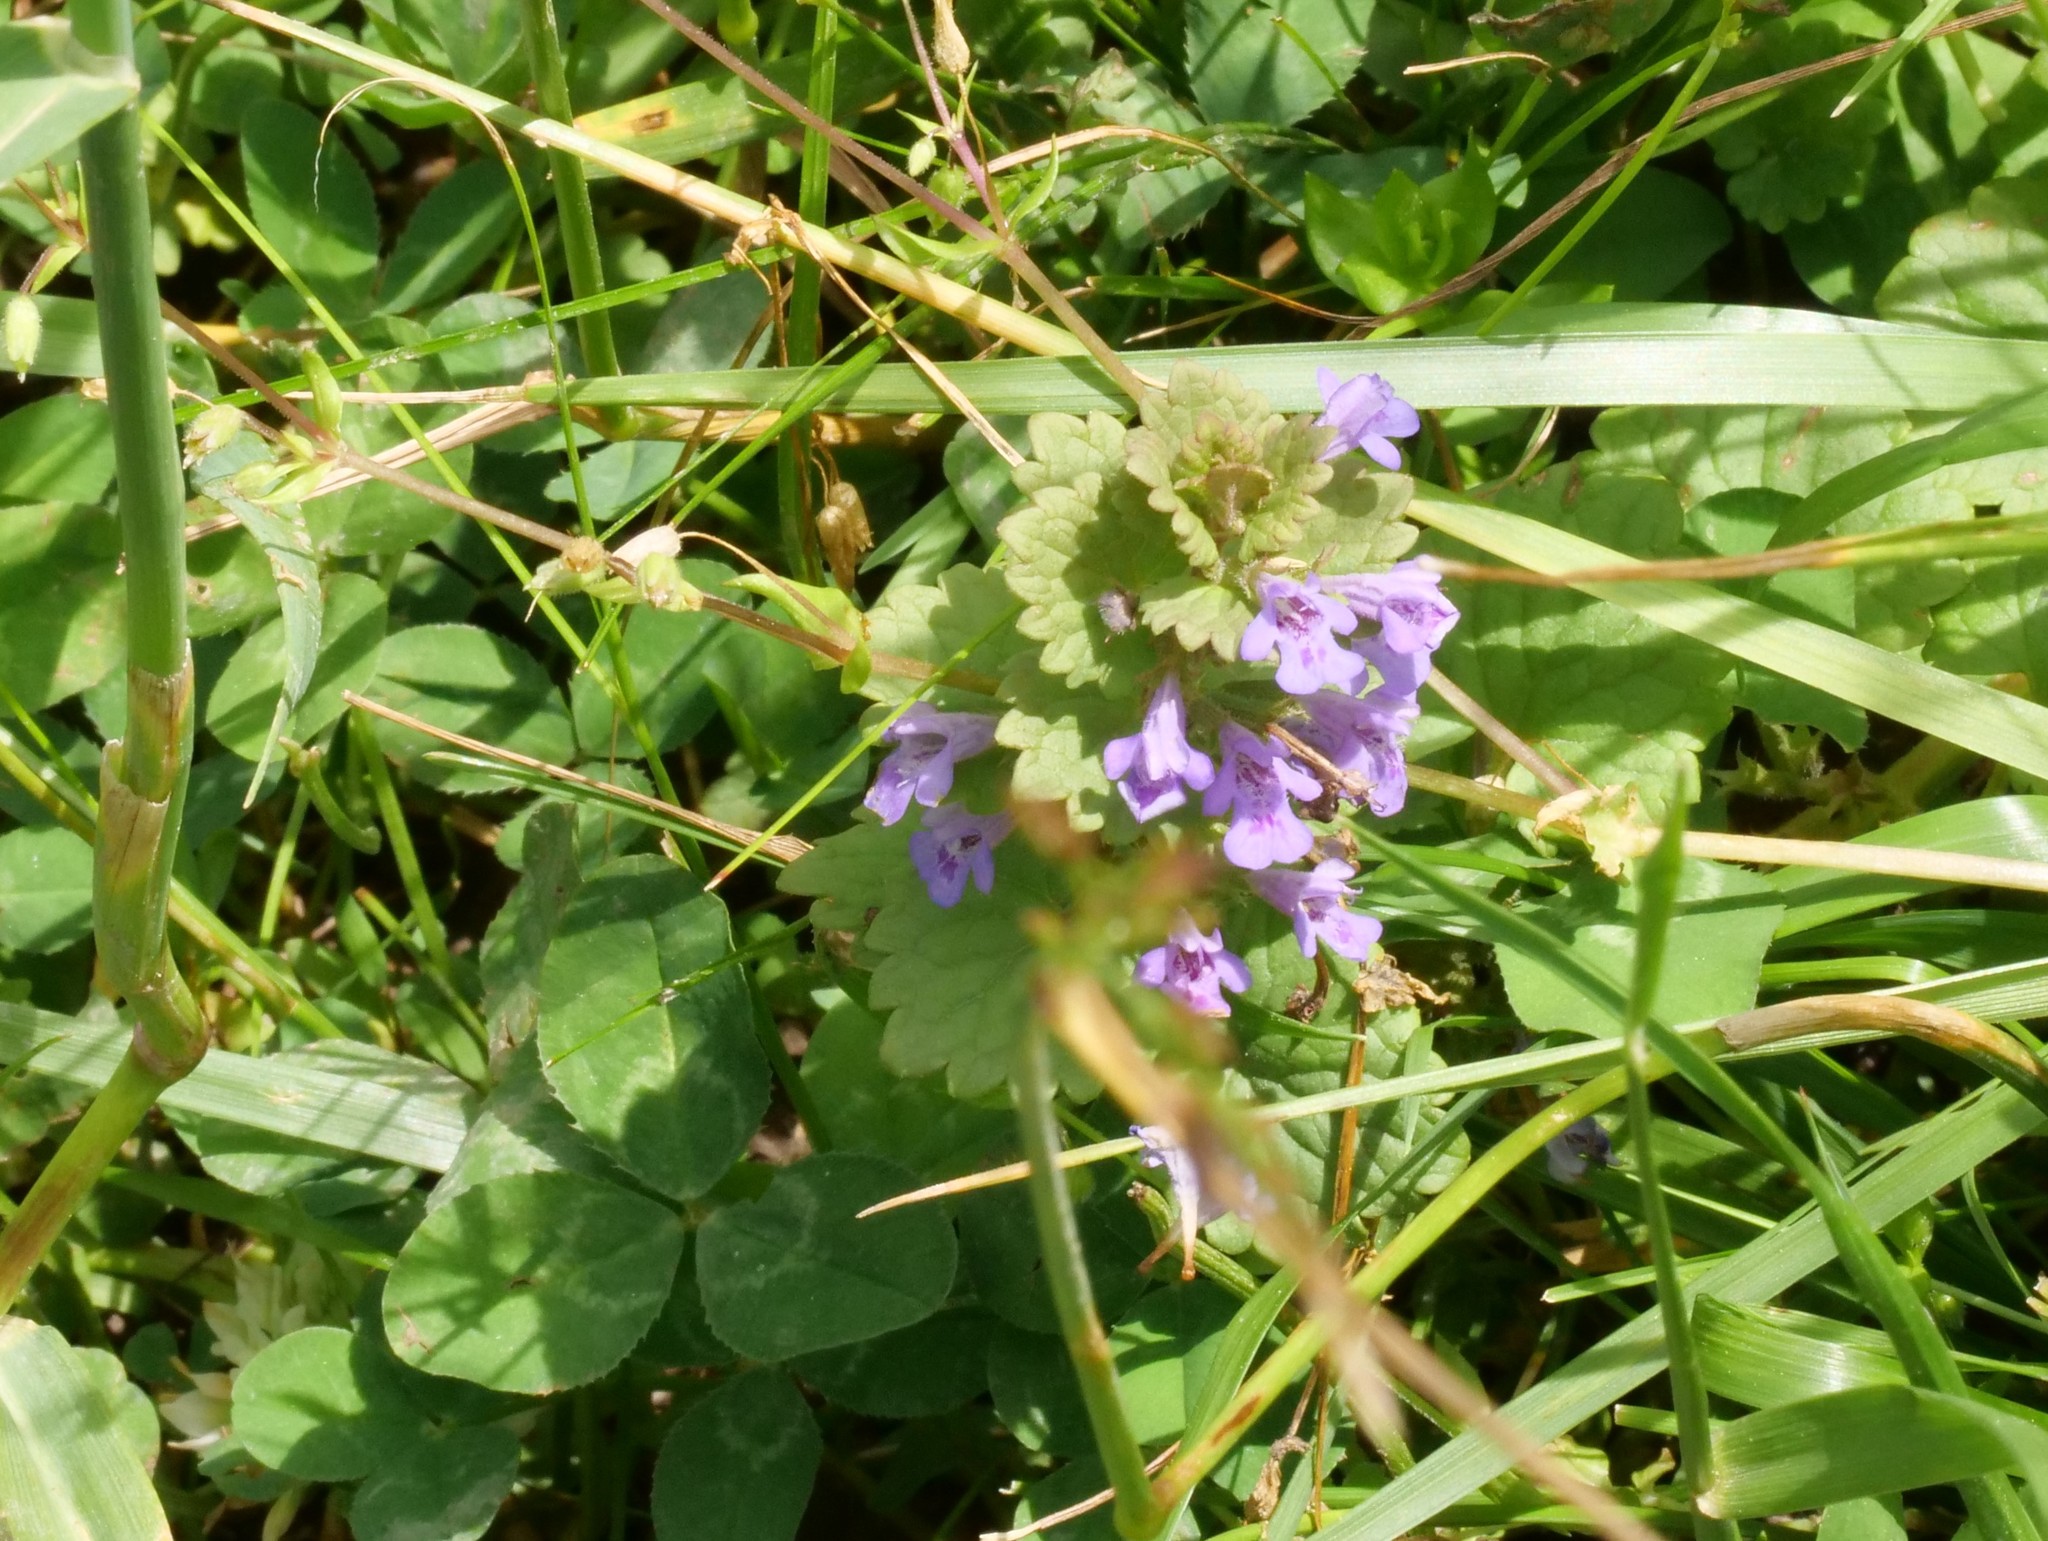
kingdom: Plantae
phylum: Tracheophyta
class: Magnoliopsida
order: Lamiales
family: Lamiaceae
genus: Glechoma
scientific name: Glechoma hederacea
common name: Ground ivy
